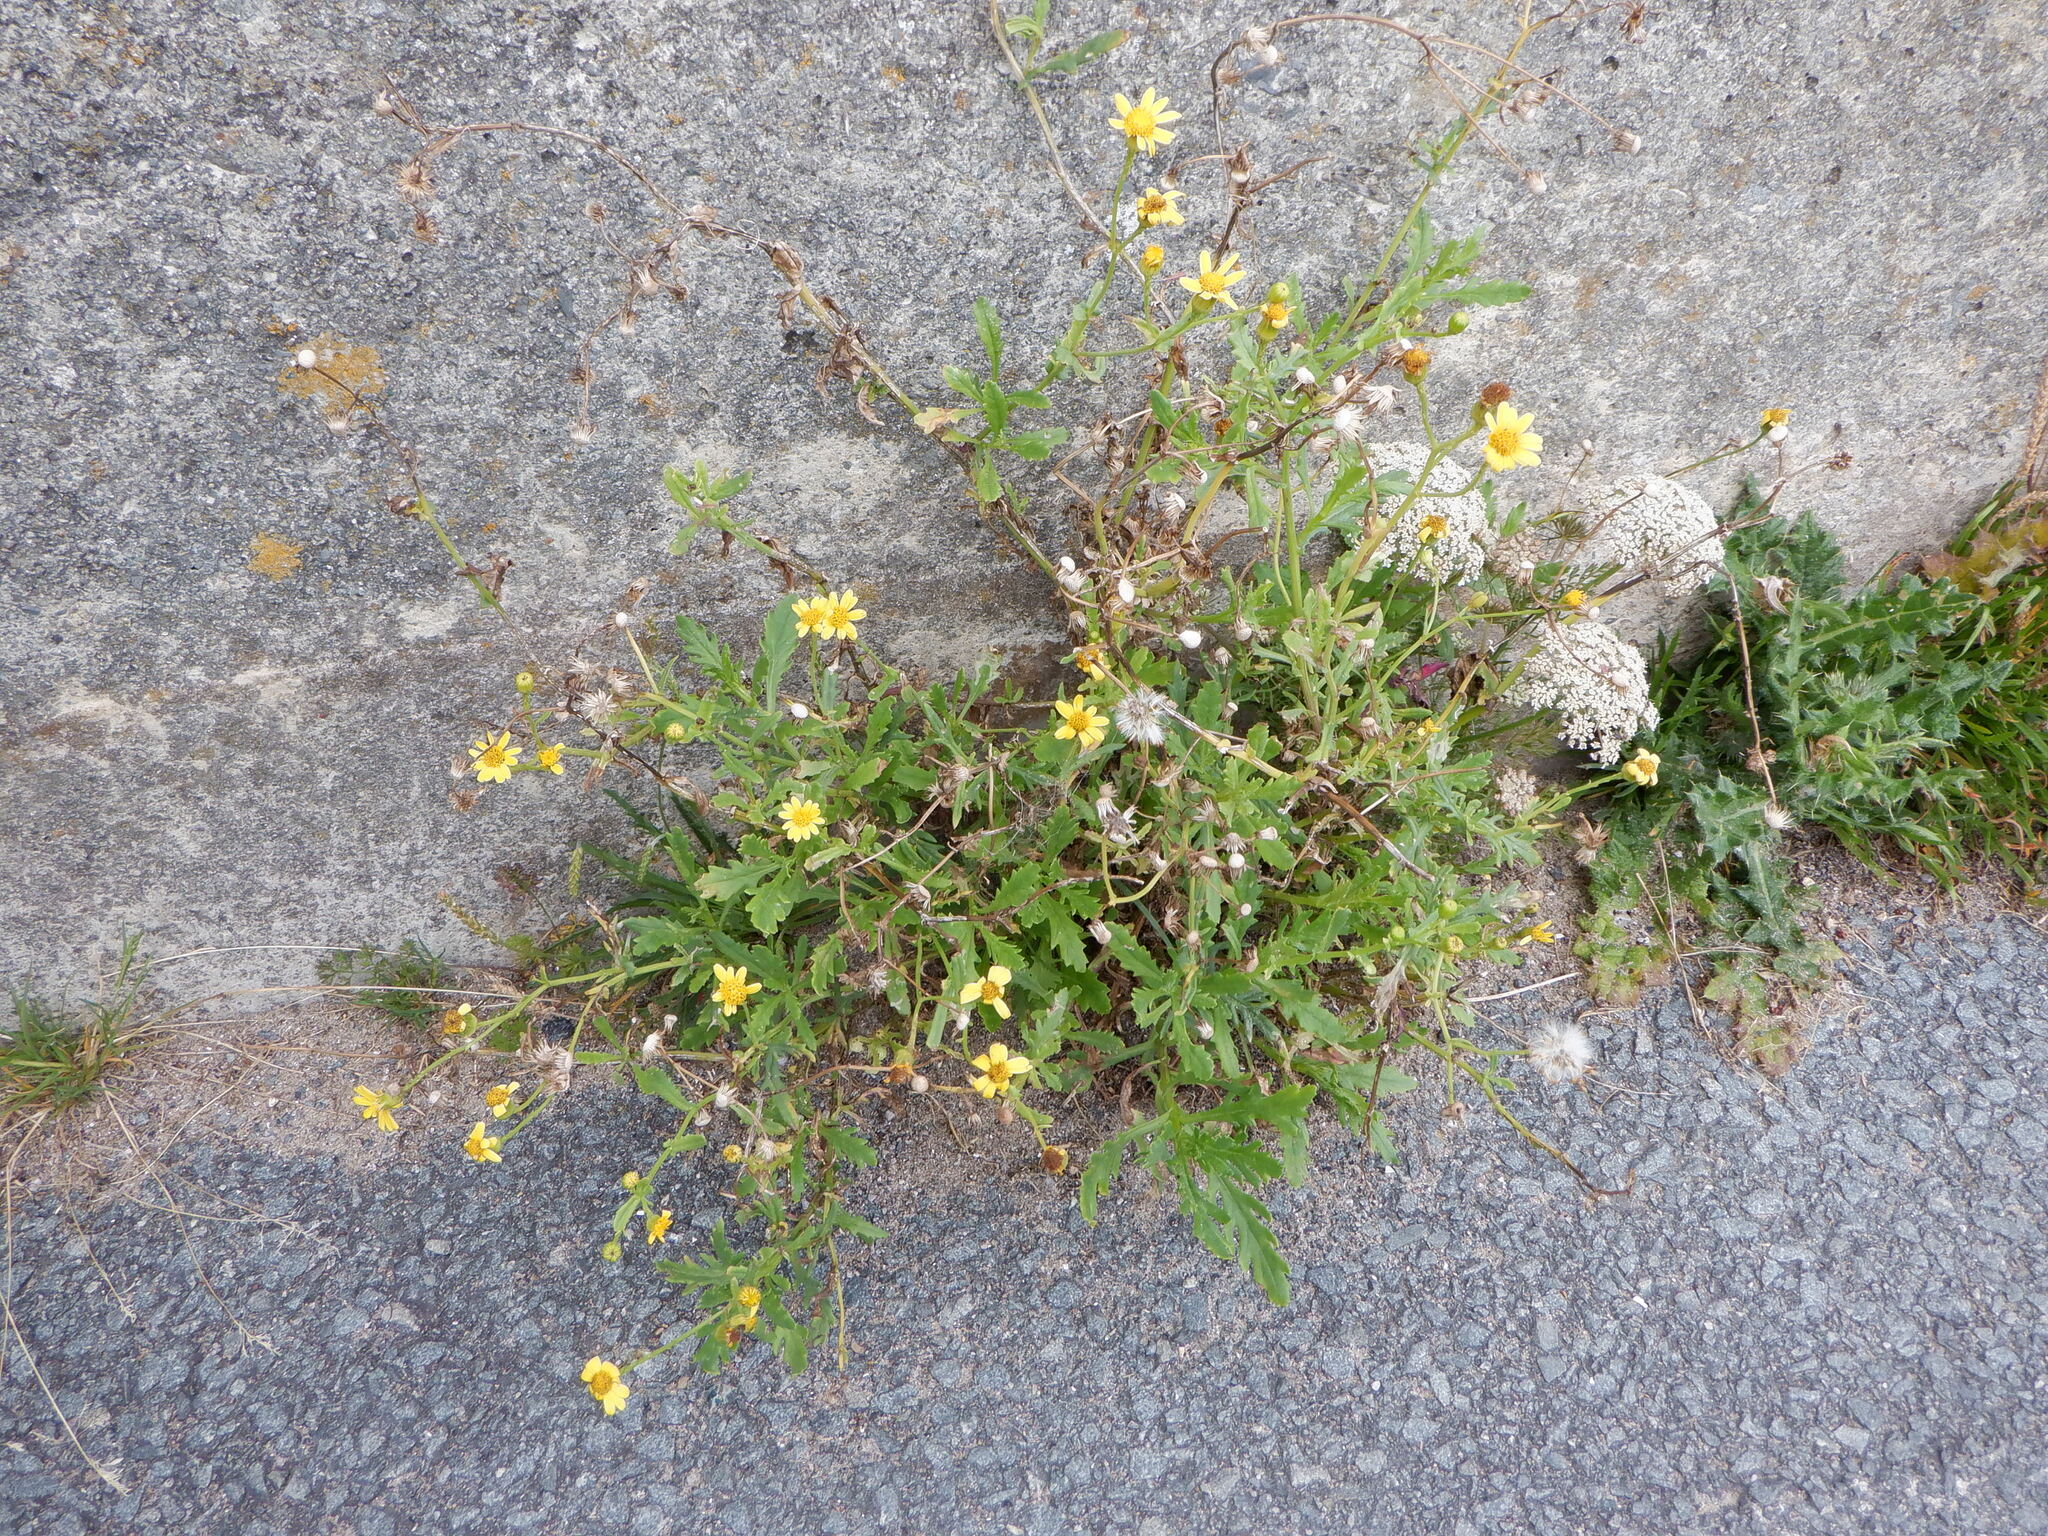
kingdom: Plantae
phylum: Tracheophyta
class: Magnoliopsida
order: Asterales
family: Asteraceae
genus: Senecio
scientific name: Senecio squalidus
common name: Oxford ragwort
